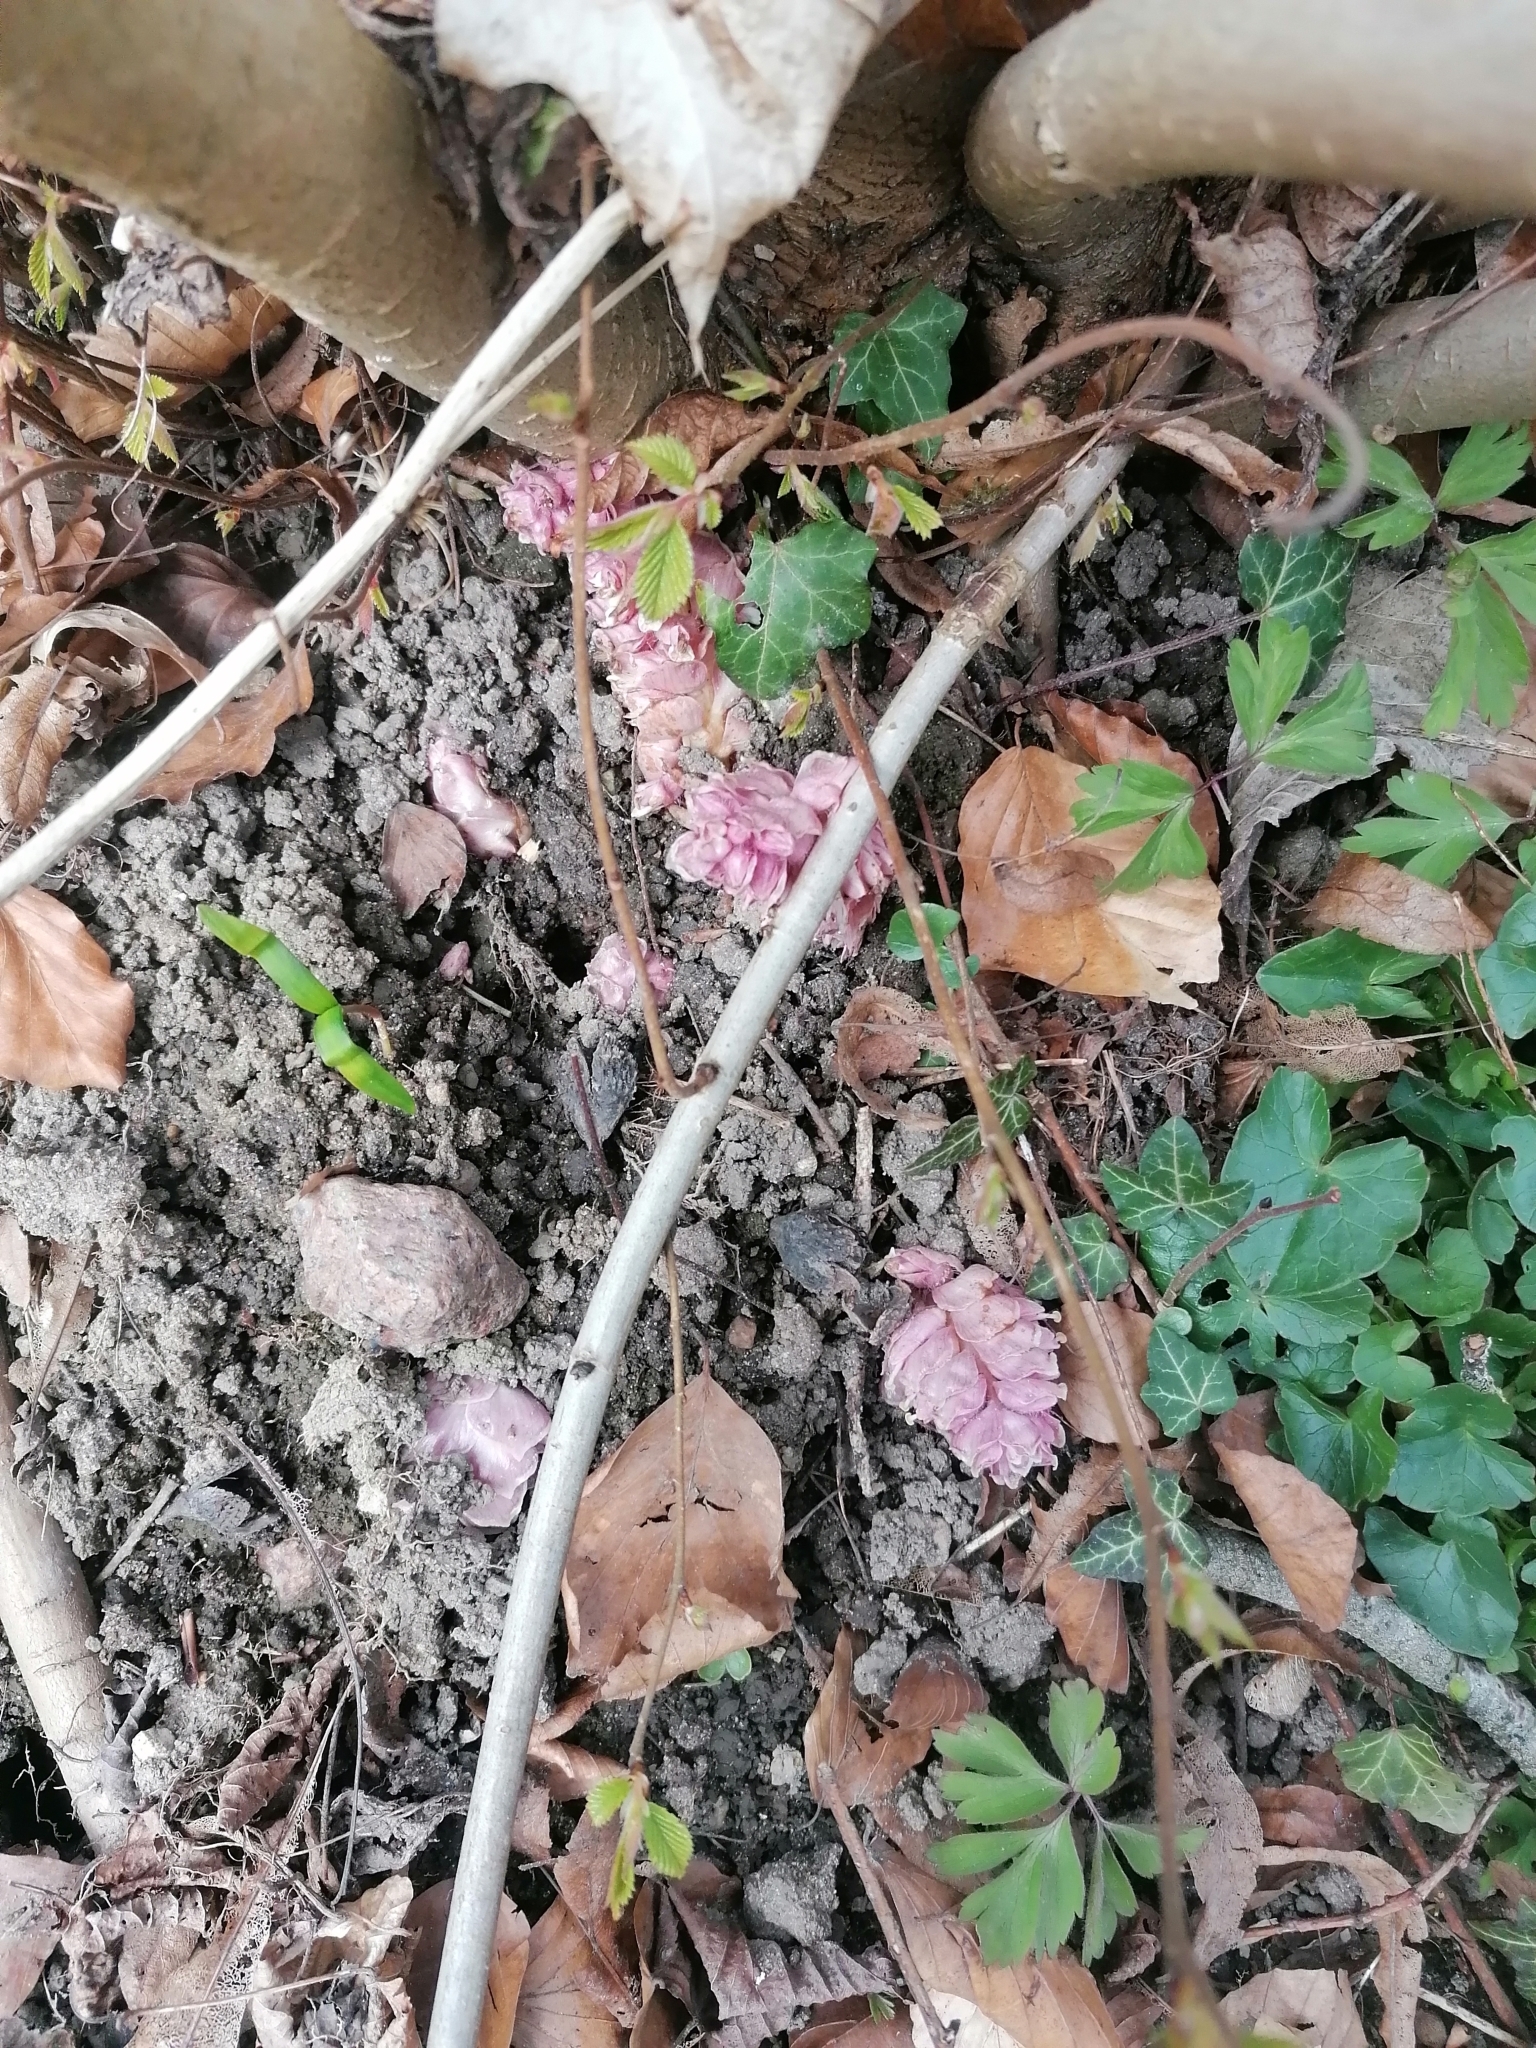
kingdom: Plantae
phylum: Tracheophyta
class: Magnoliopsida
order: Lamiales
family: Orobanchaceae
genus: Lathraea
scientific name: Lathraea squamaria
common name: Toothwort
